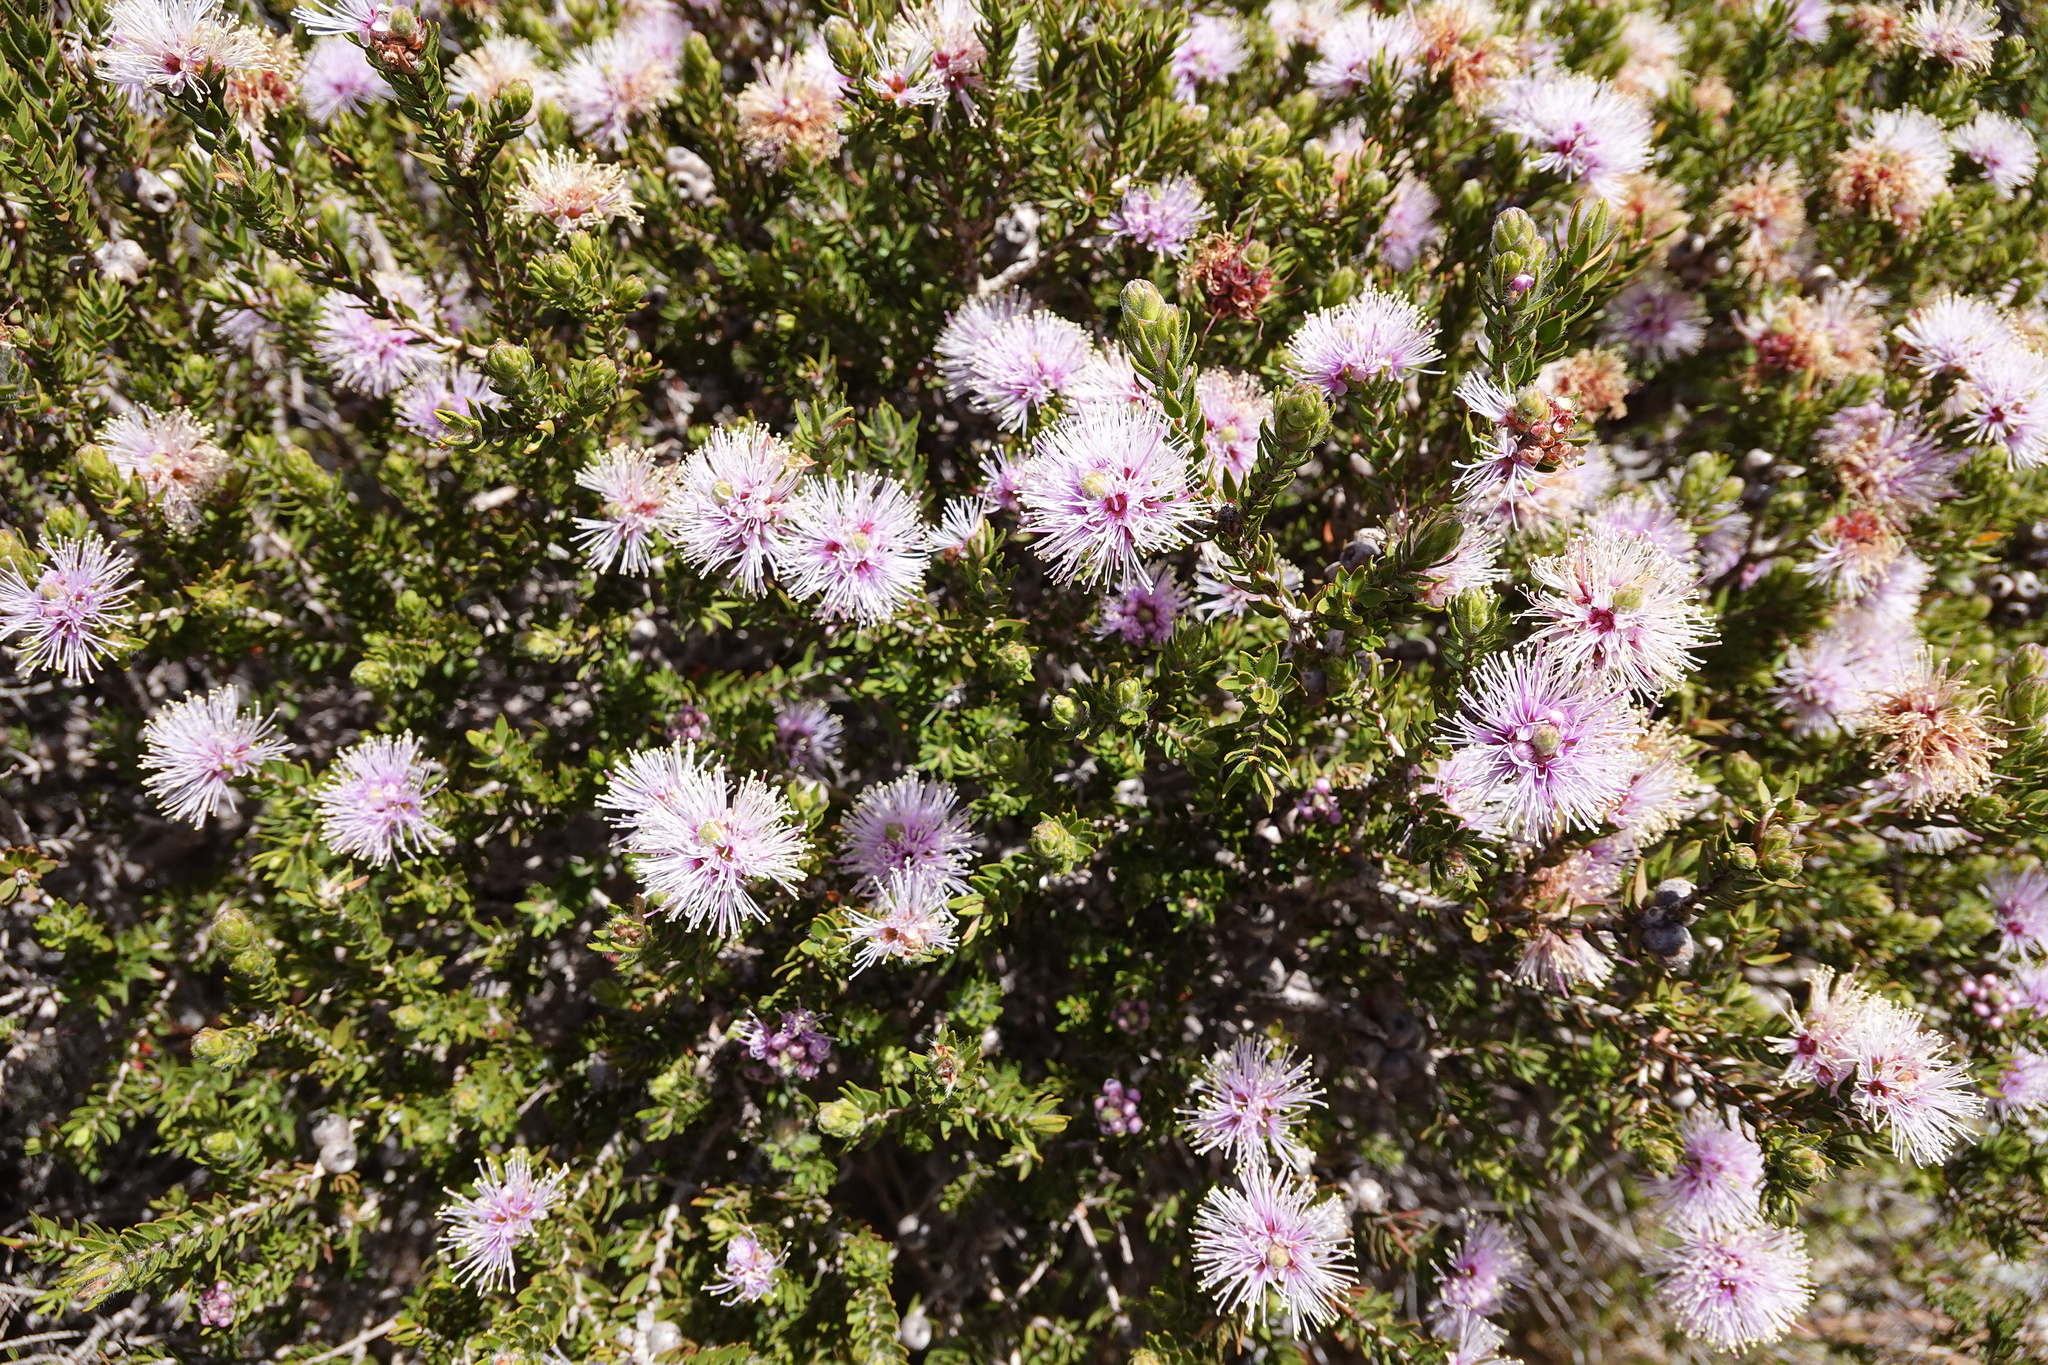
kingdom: Plantae
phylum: Tracheophyta
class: Magnoliopsida
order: Myrtales
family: Myrtaceae
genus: Melaleuca
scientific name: Melaleuca squamea
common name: Swamp melaleuca
